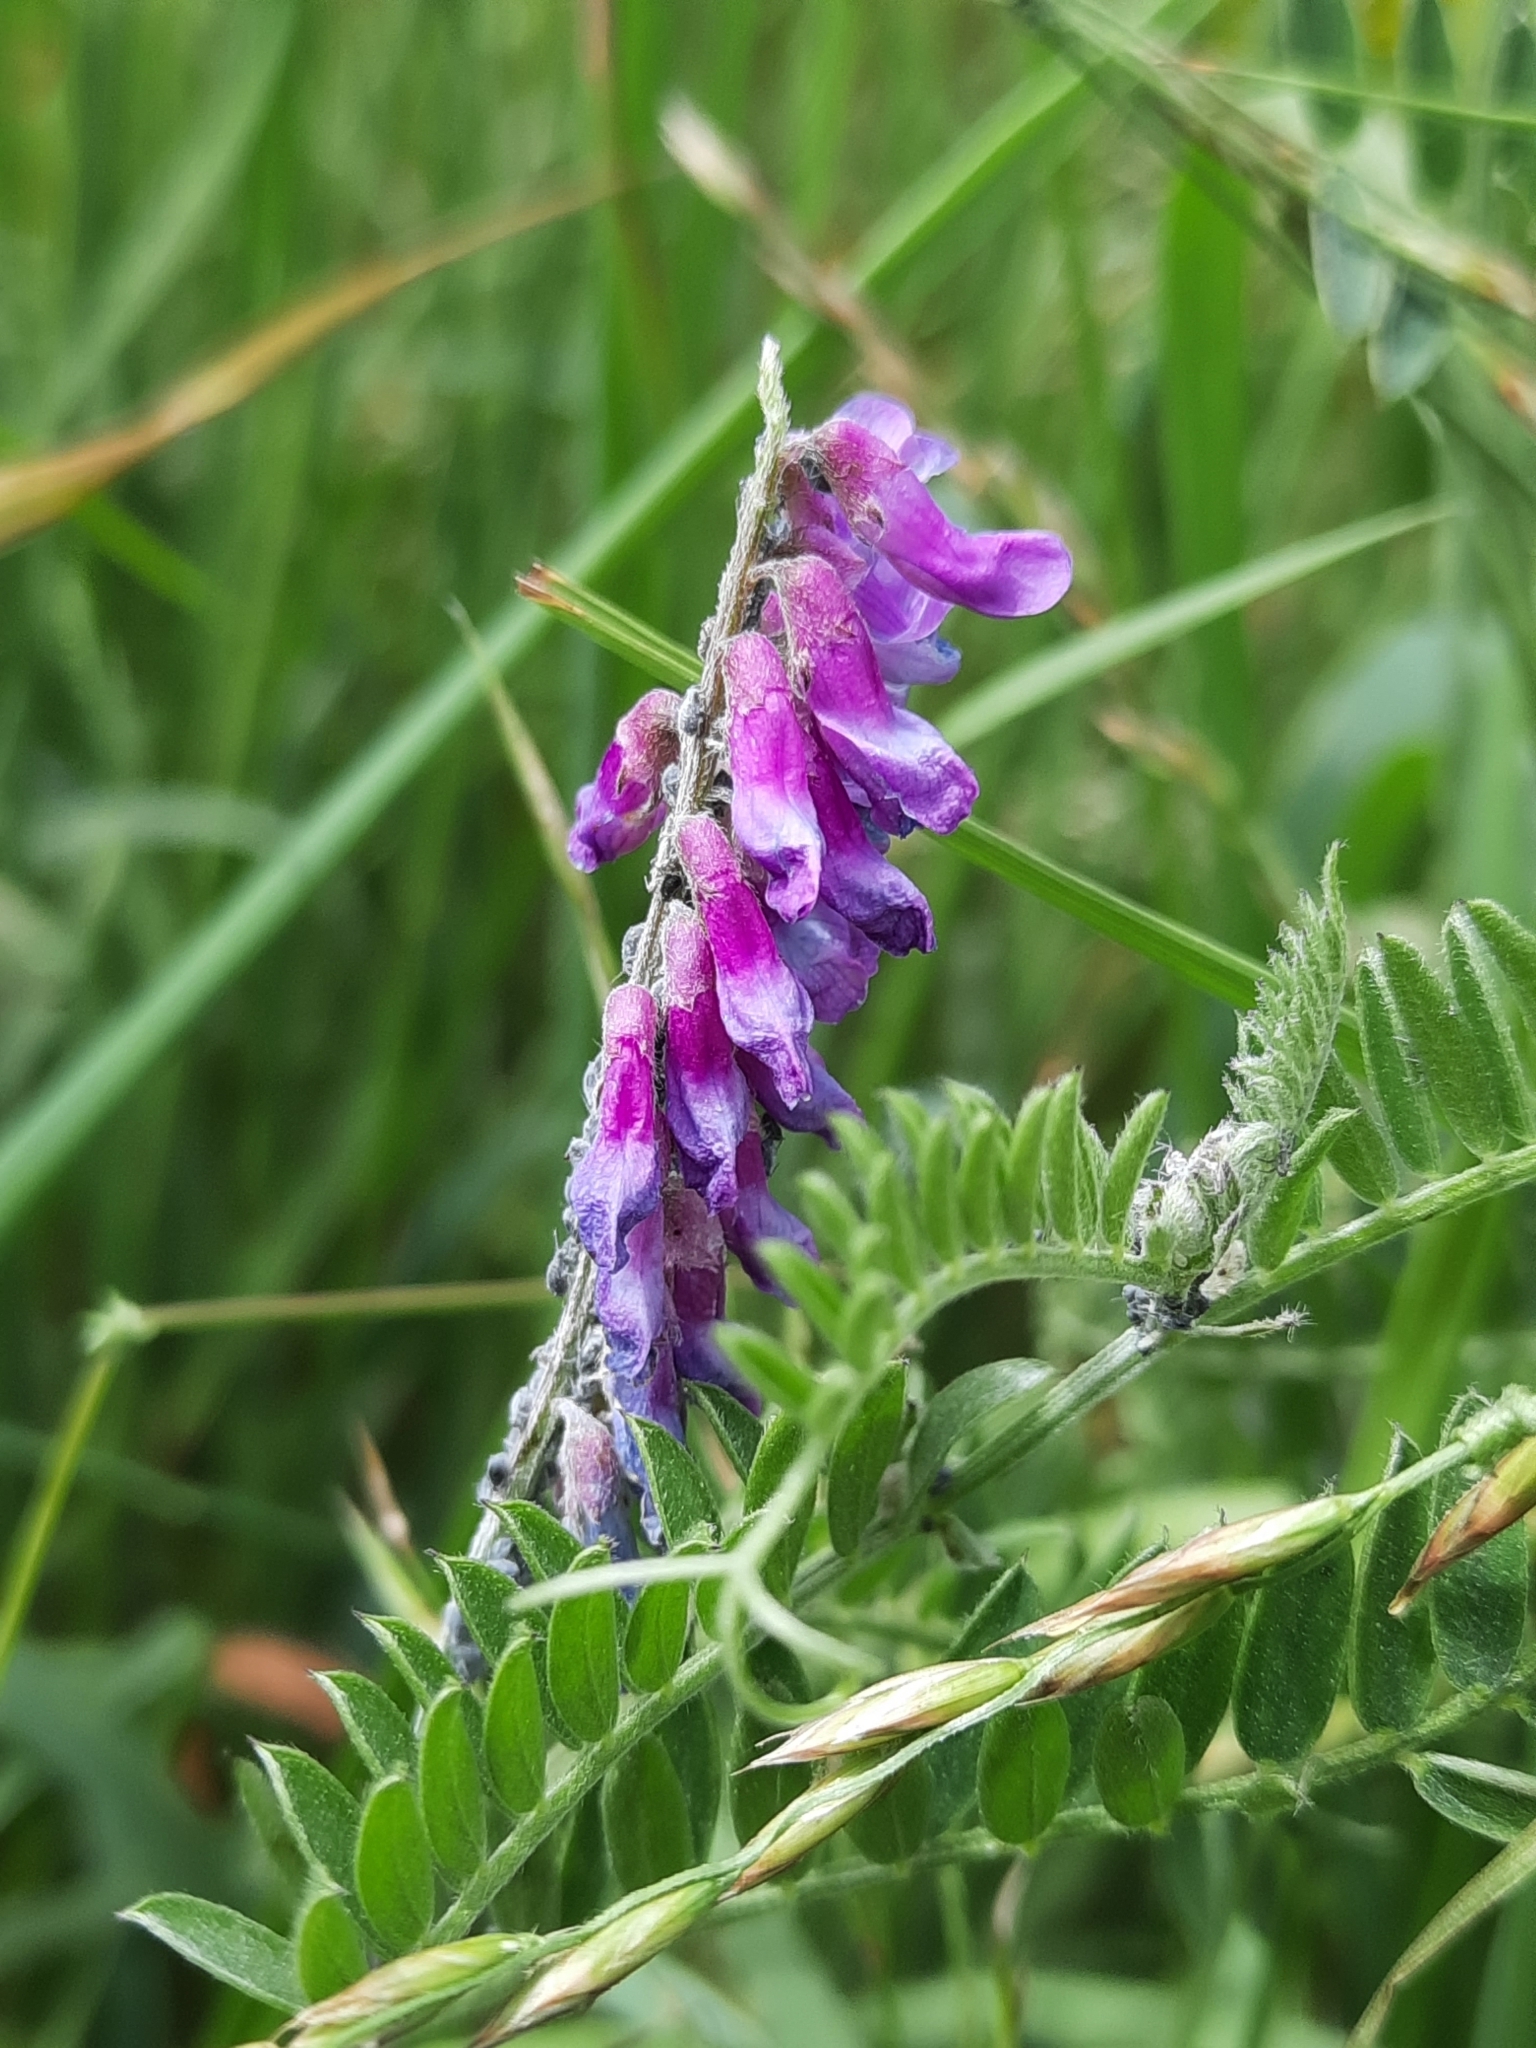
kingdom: Plantae
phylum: Tracheophyta
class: Magnoliopsida
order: Fabales
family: Fabaceae
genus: Vicia
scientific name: Vicia cracca
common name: Bird vetch
